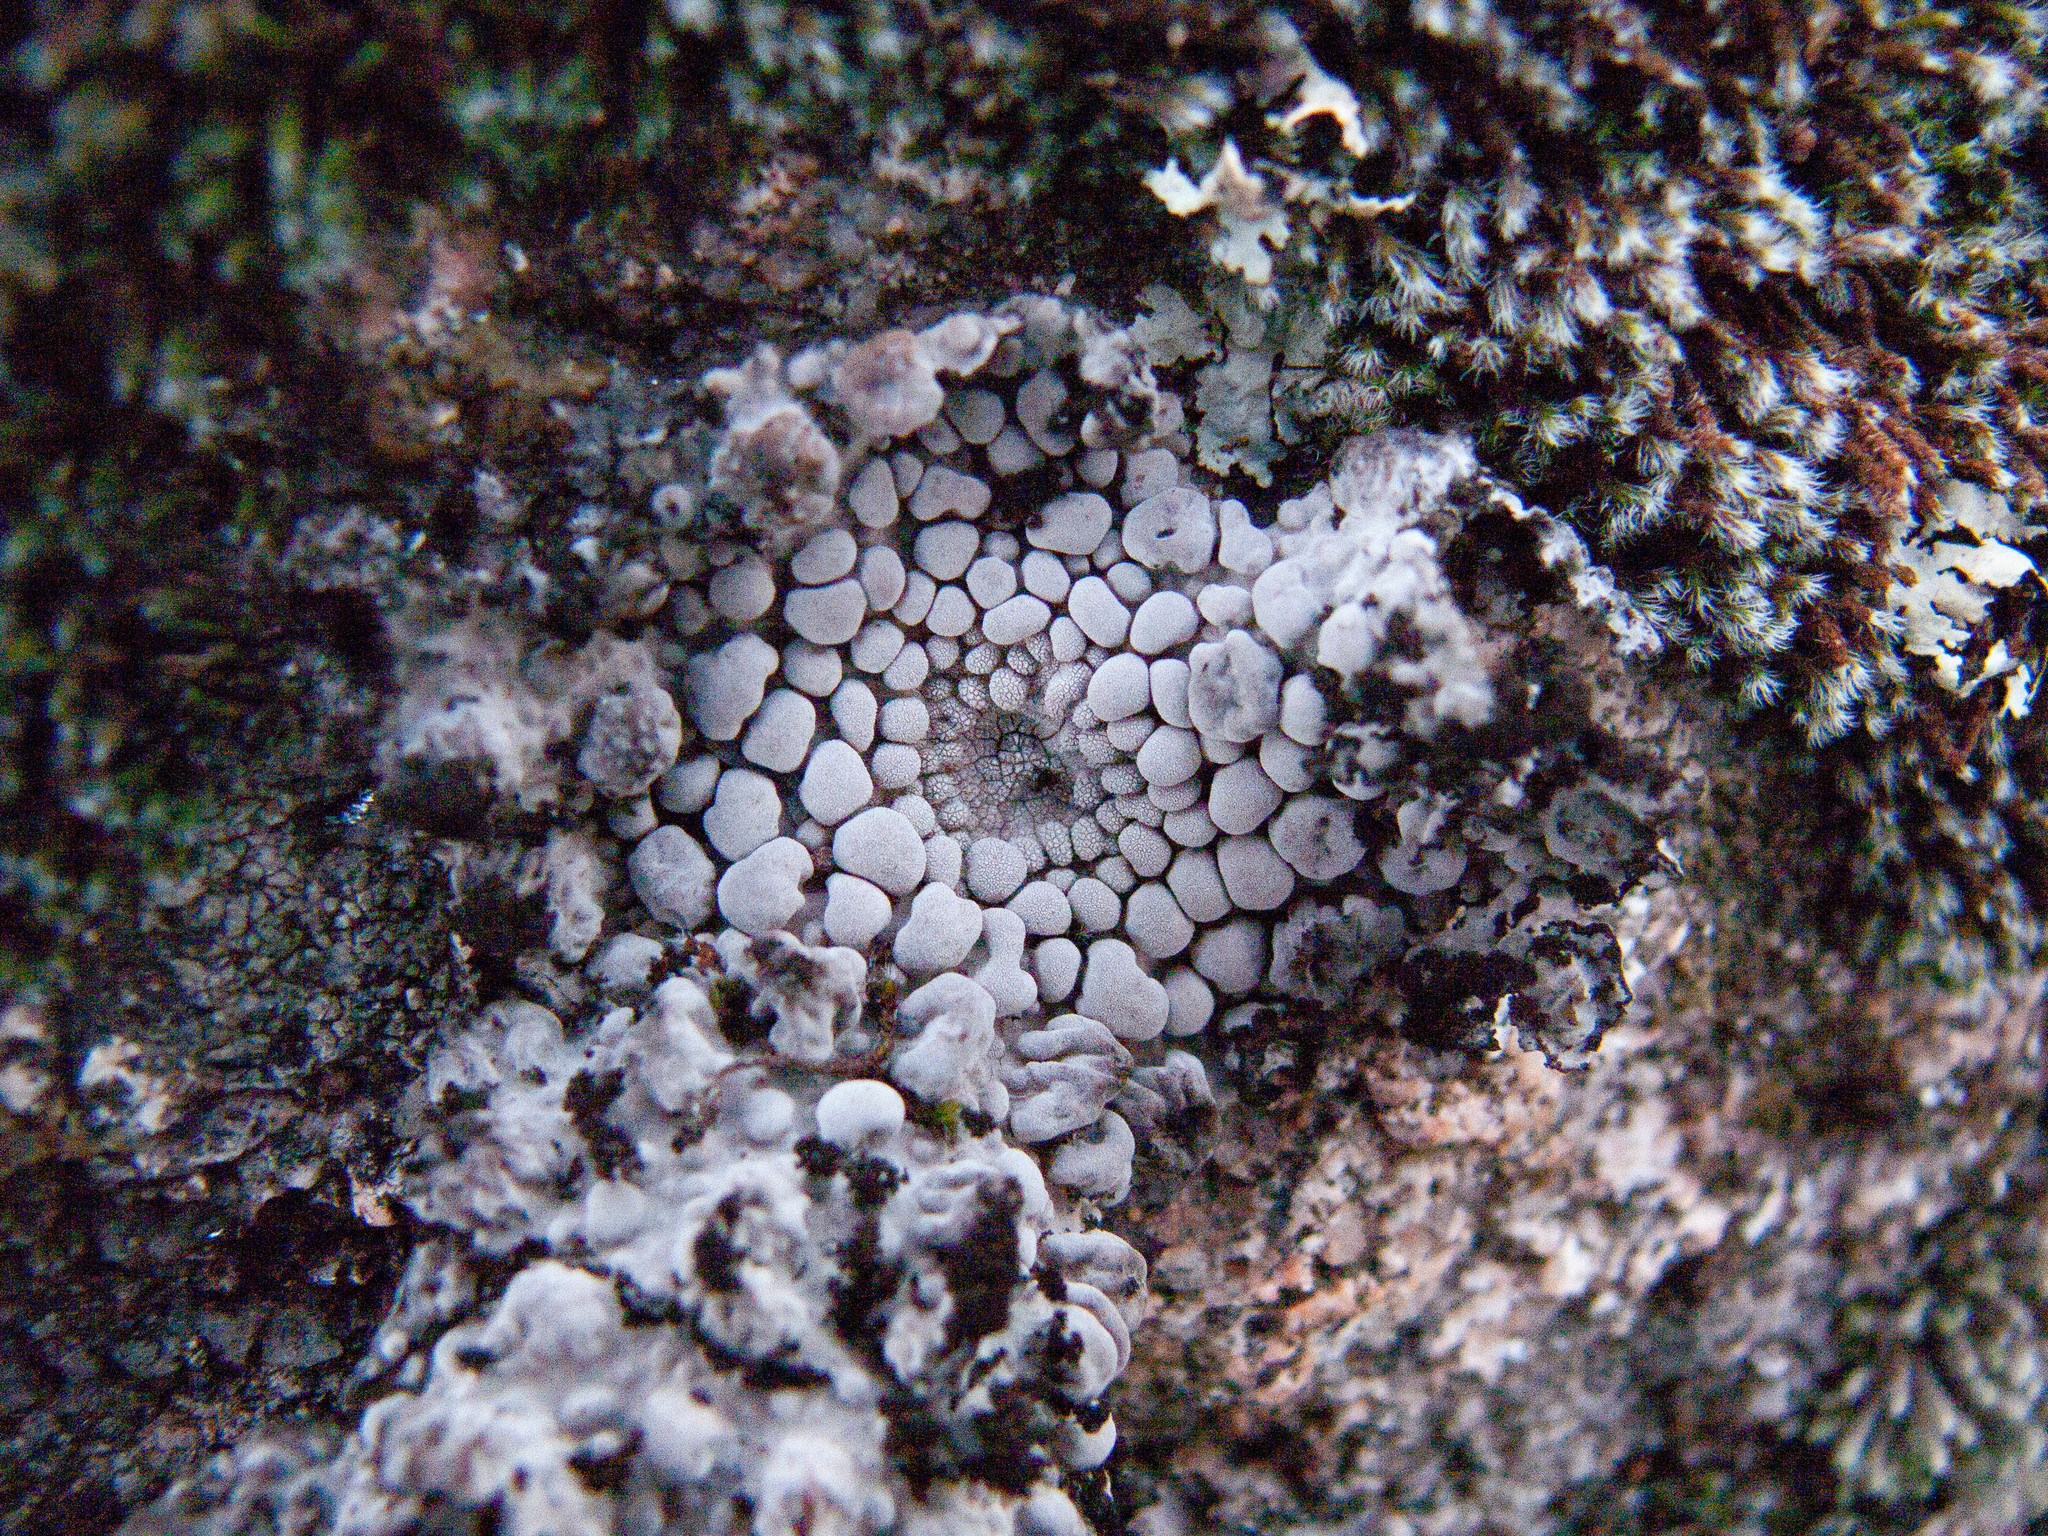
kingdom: Fungi
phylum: Ascomycota
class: Lecanoromycetes
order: Umbilicariales
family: Umbilicariaceae
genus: Lasallia
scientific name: Lasallia pustulata
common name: Blistered toadskin lichen
